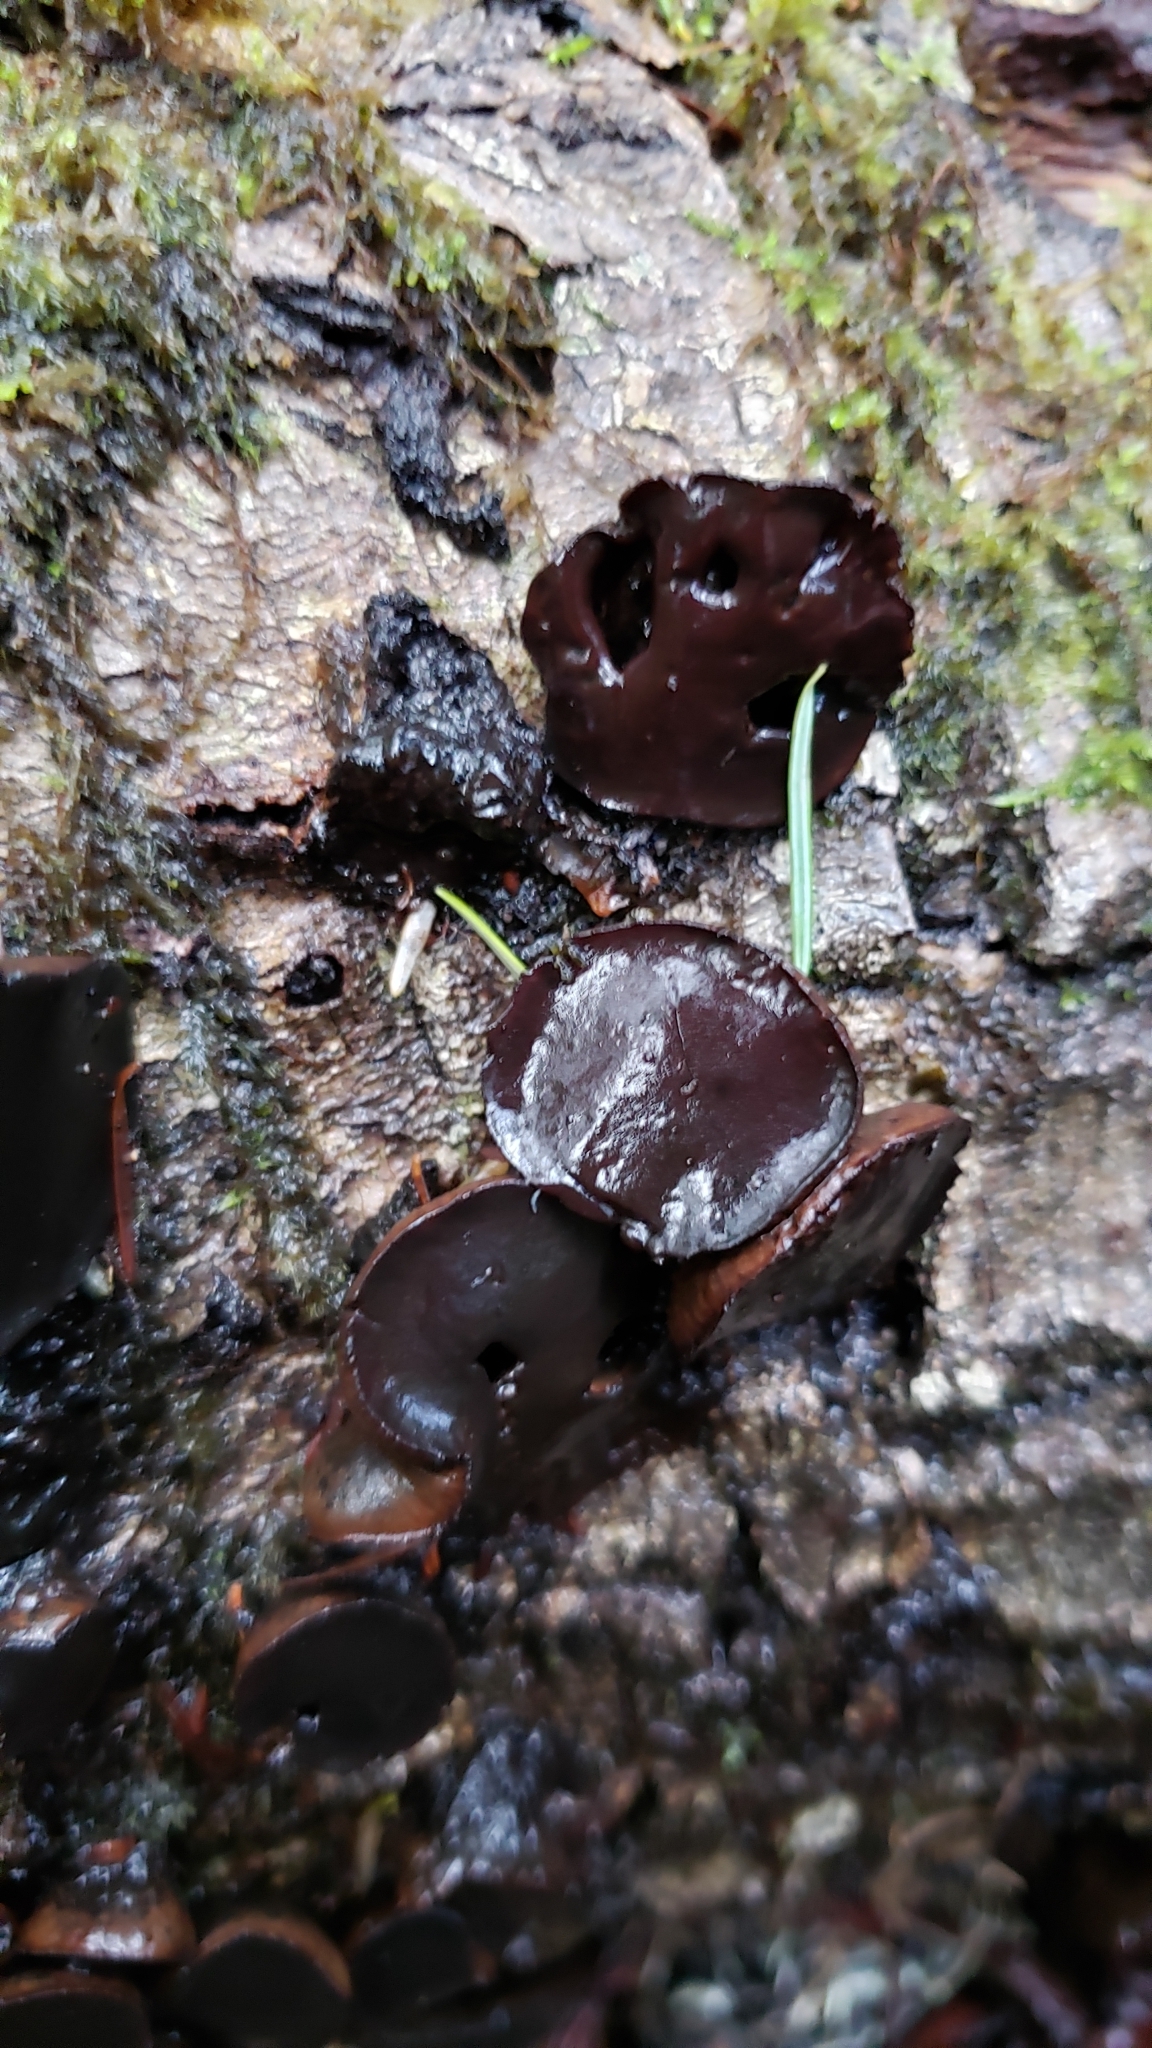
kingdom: Fungi
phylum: Ascomycota
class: Leotiomycetes
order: Phacidiales
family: Phacidiaceae
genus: Bulgaria
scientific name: Bulgaria inquinans
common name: Black bulgar
